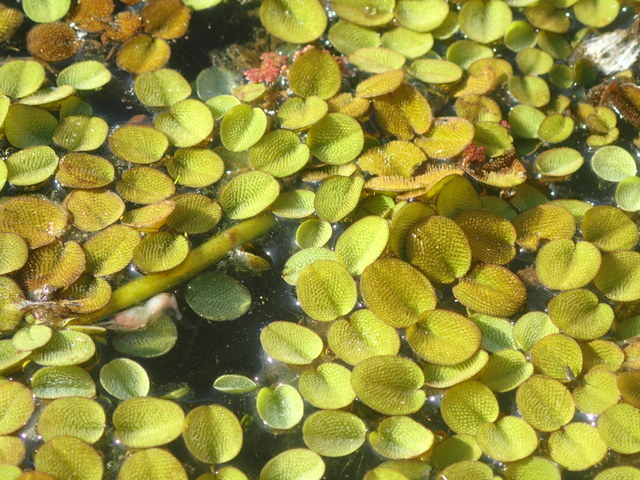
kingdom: Plantae
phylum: Tracheophyta
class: Polypodiopsida
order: Salviniales
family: Salviniaceae
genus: Salvinia
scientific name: Salvinia minima
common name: Water spangles
